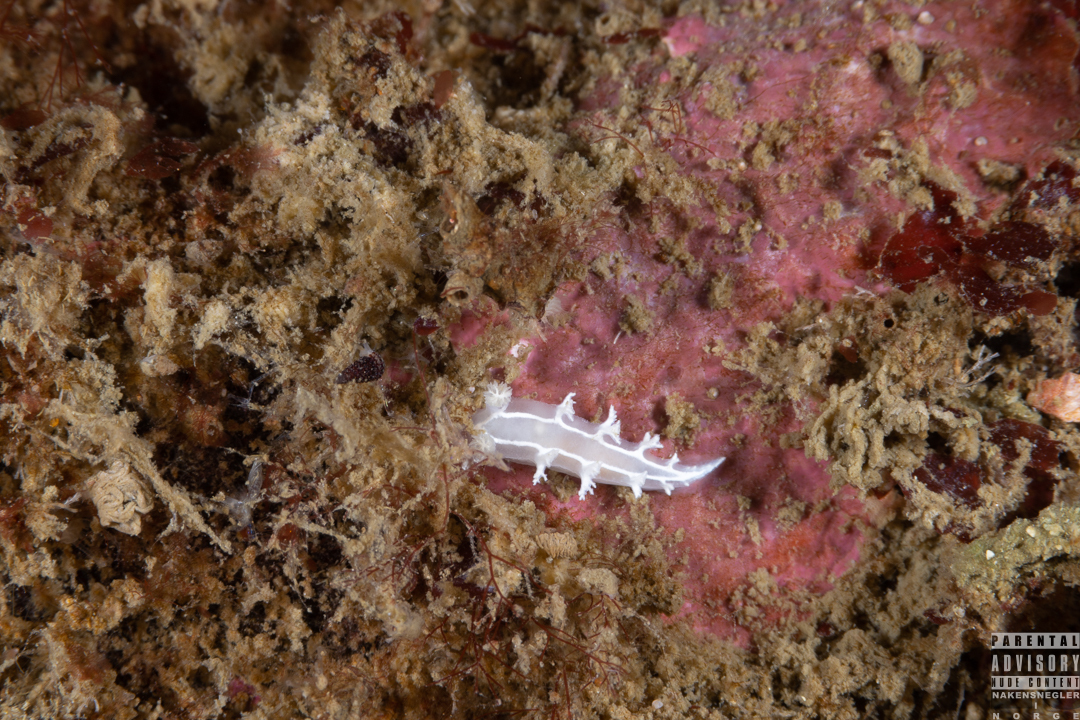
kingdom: Animalia
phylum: Mollusca
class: Gastropoda
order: Nudibranchia
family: Tritoniidae
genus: Duvaucelia
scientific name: Duvaucelia lineata
